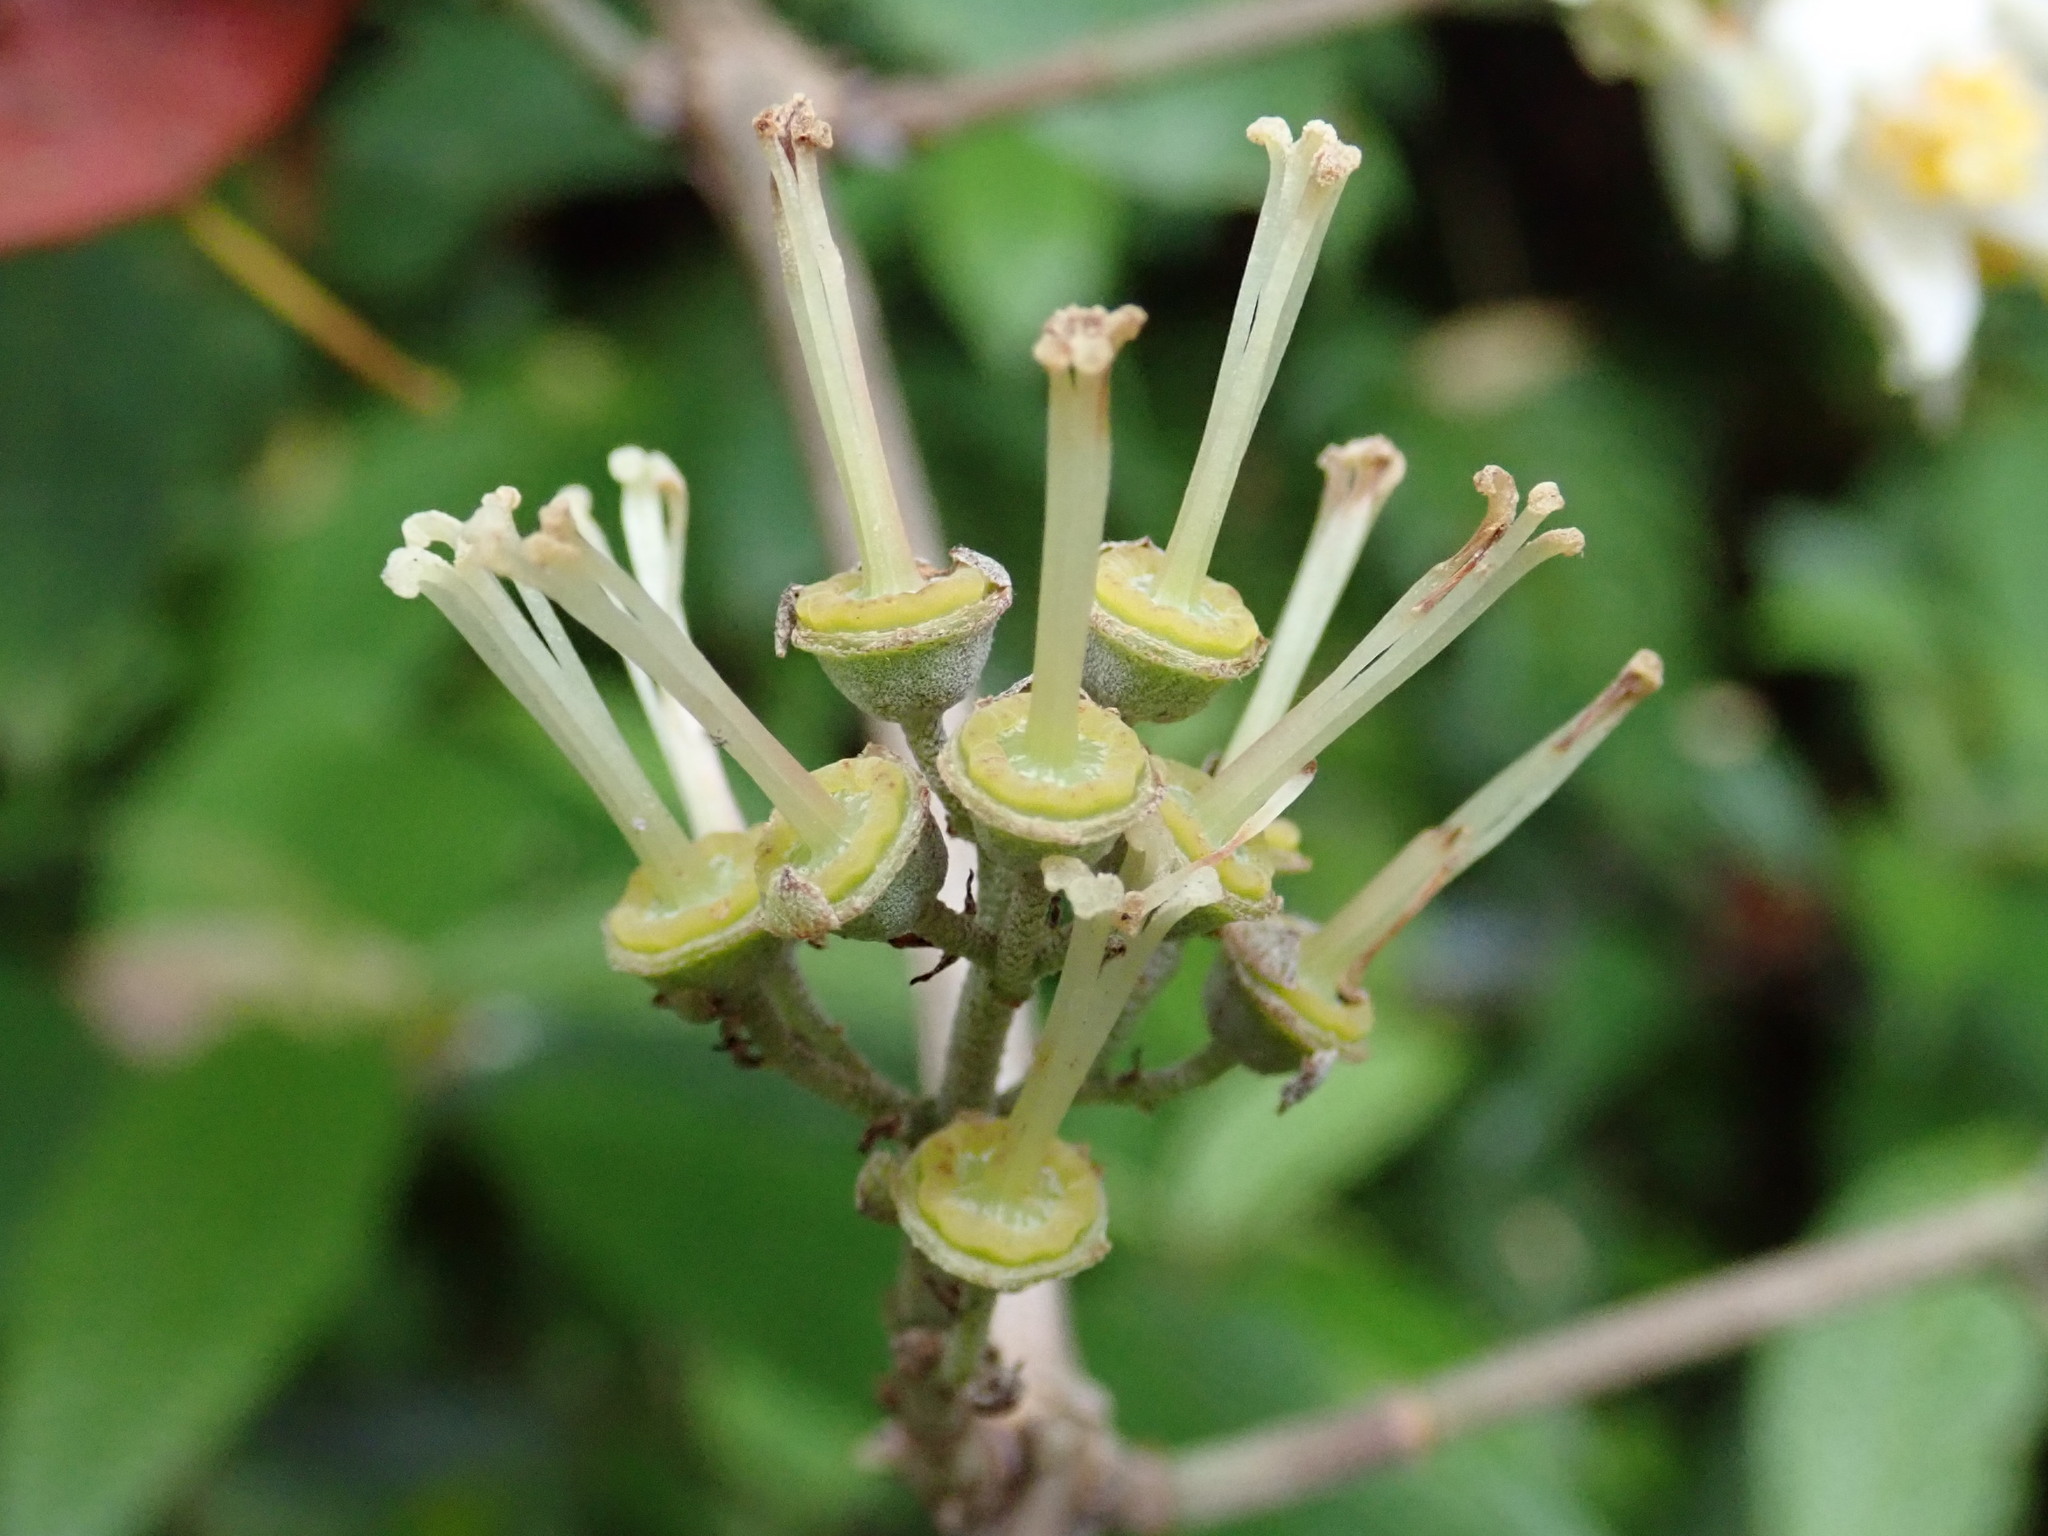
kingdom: Plantae
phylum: Tracheophyta
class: Magnoliopsida
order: Cornales
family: Hydrangeaceae
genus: Deutzia
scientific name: Deutzia pulchra
